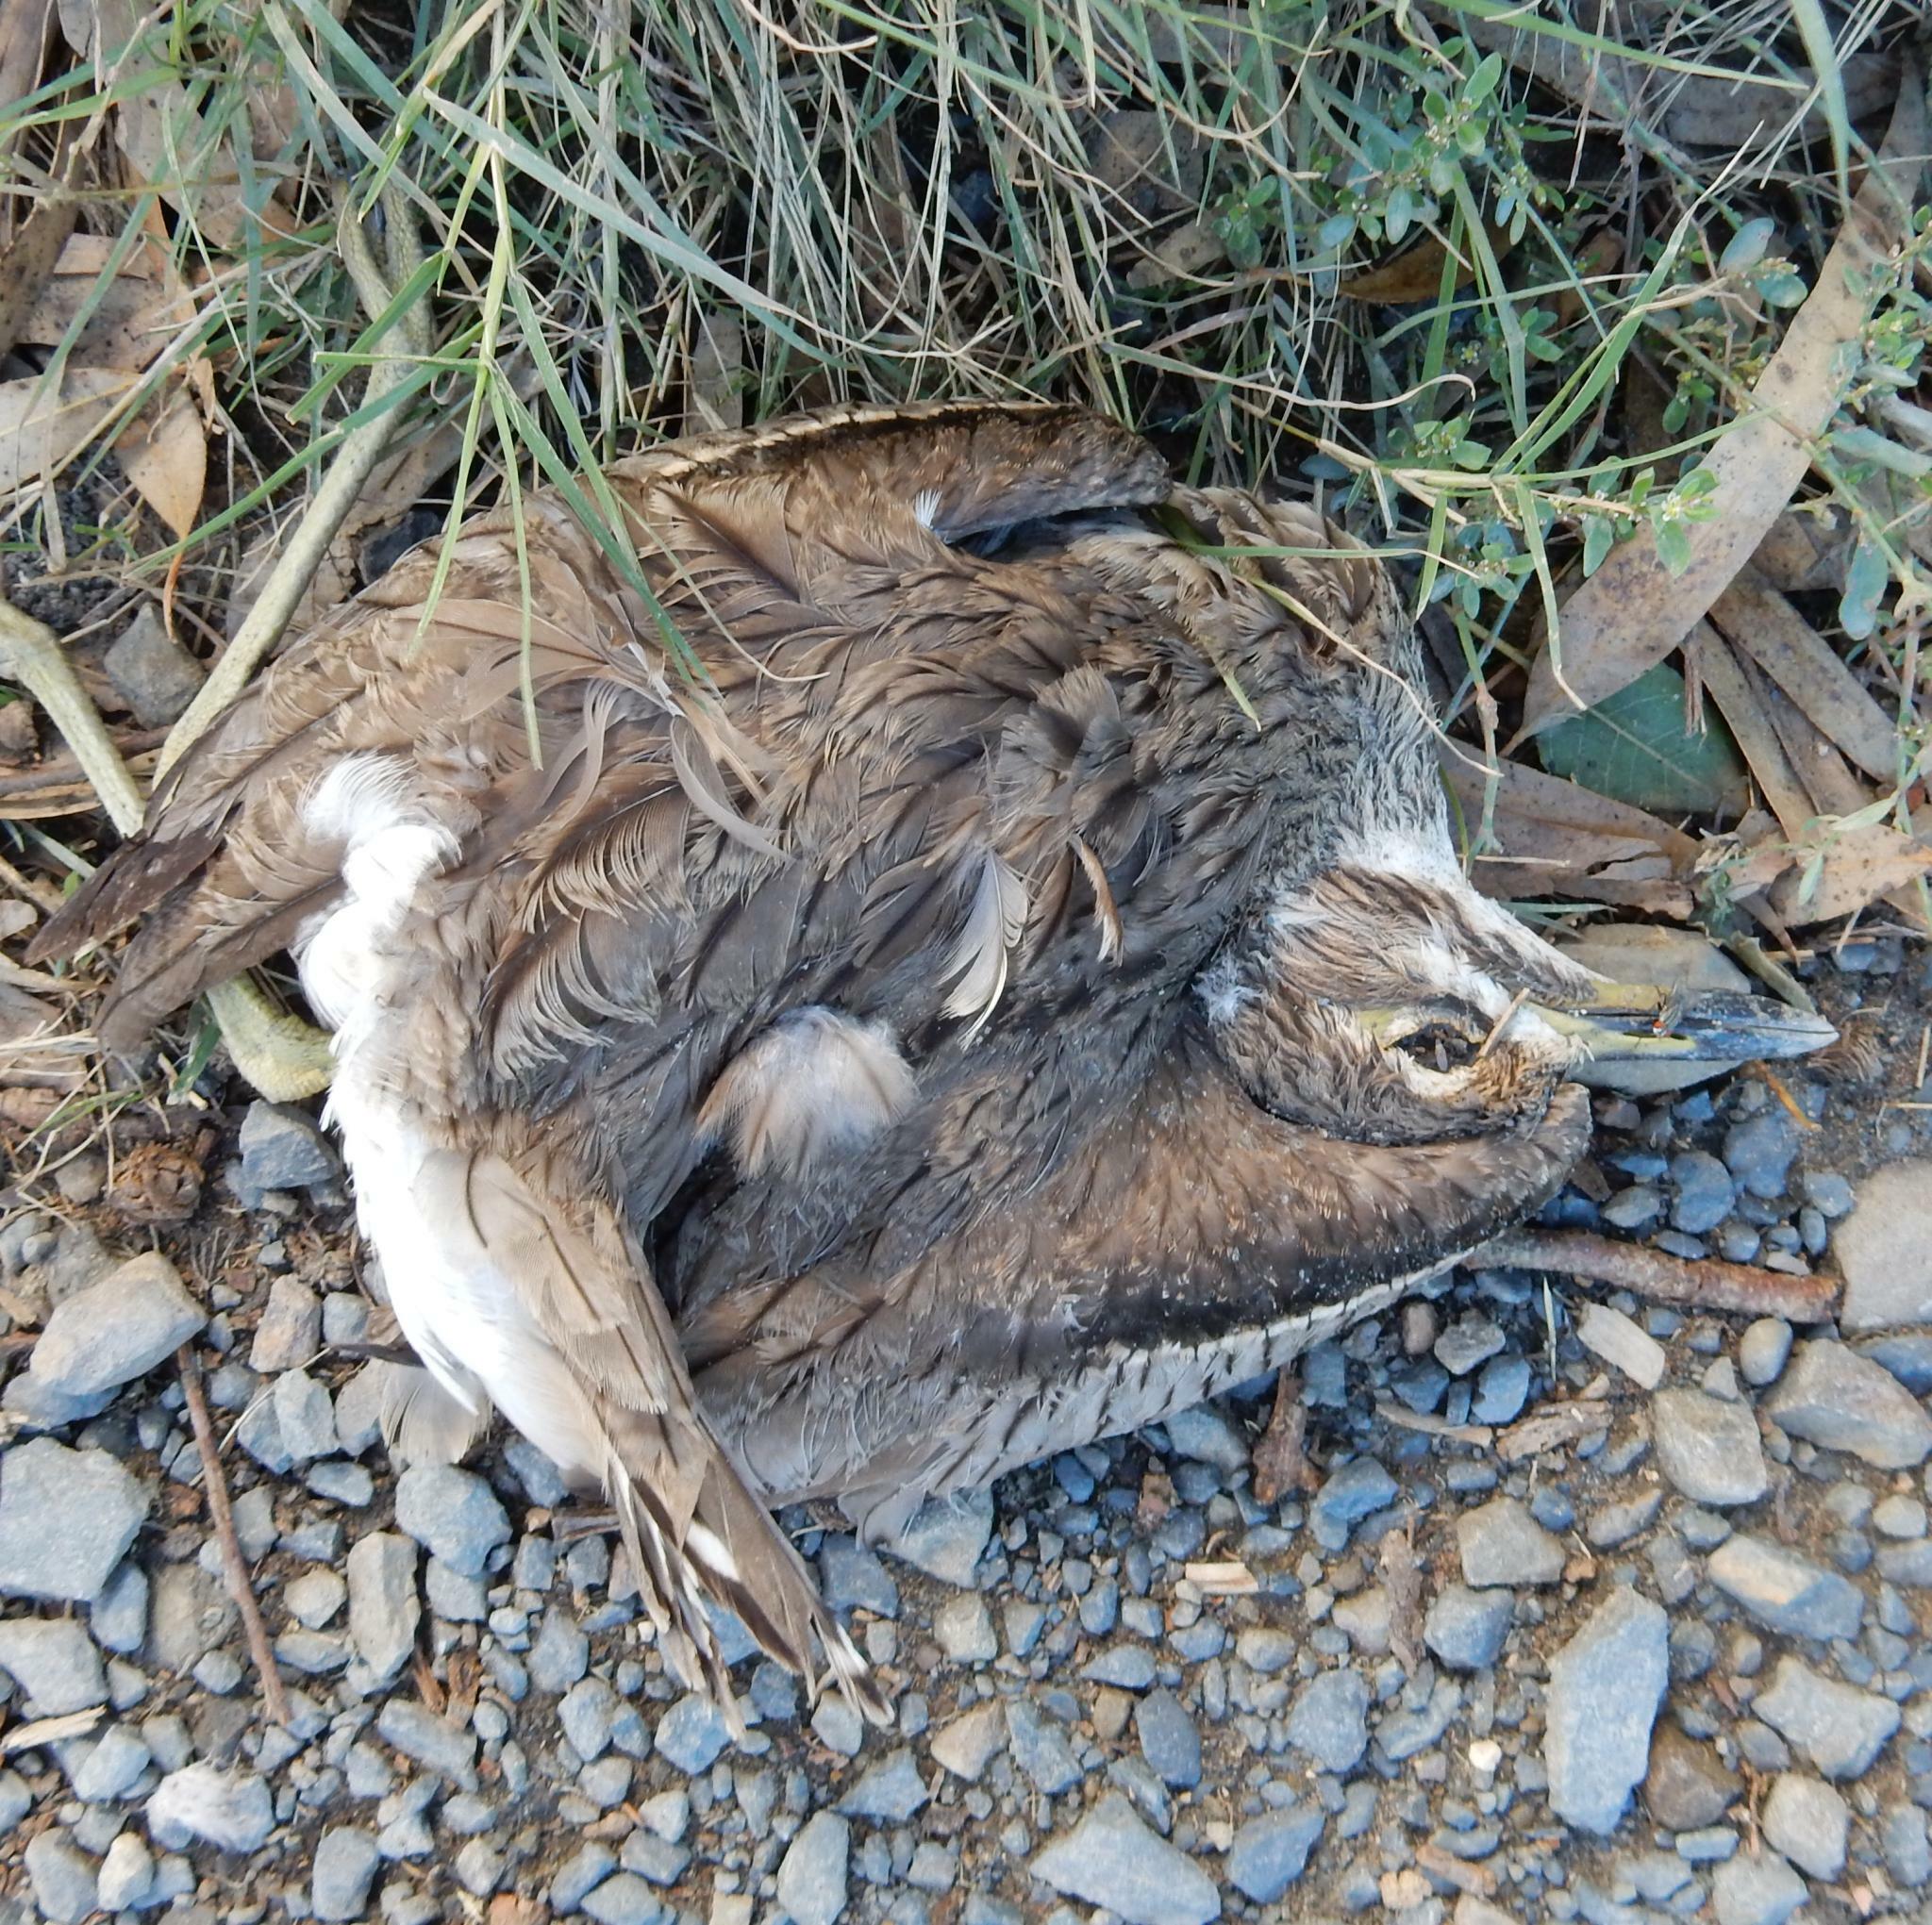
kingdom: Animalia
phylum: Chordata
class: Aves
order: Charadriiformes
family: Burhinidae
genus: Burhinus
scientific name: Burhinus vermiculatus
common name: Water thick-knee
